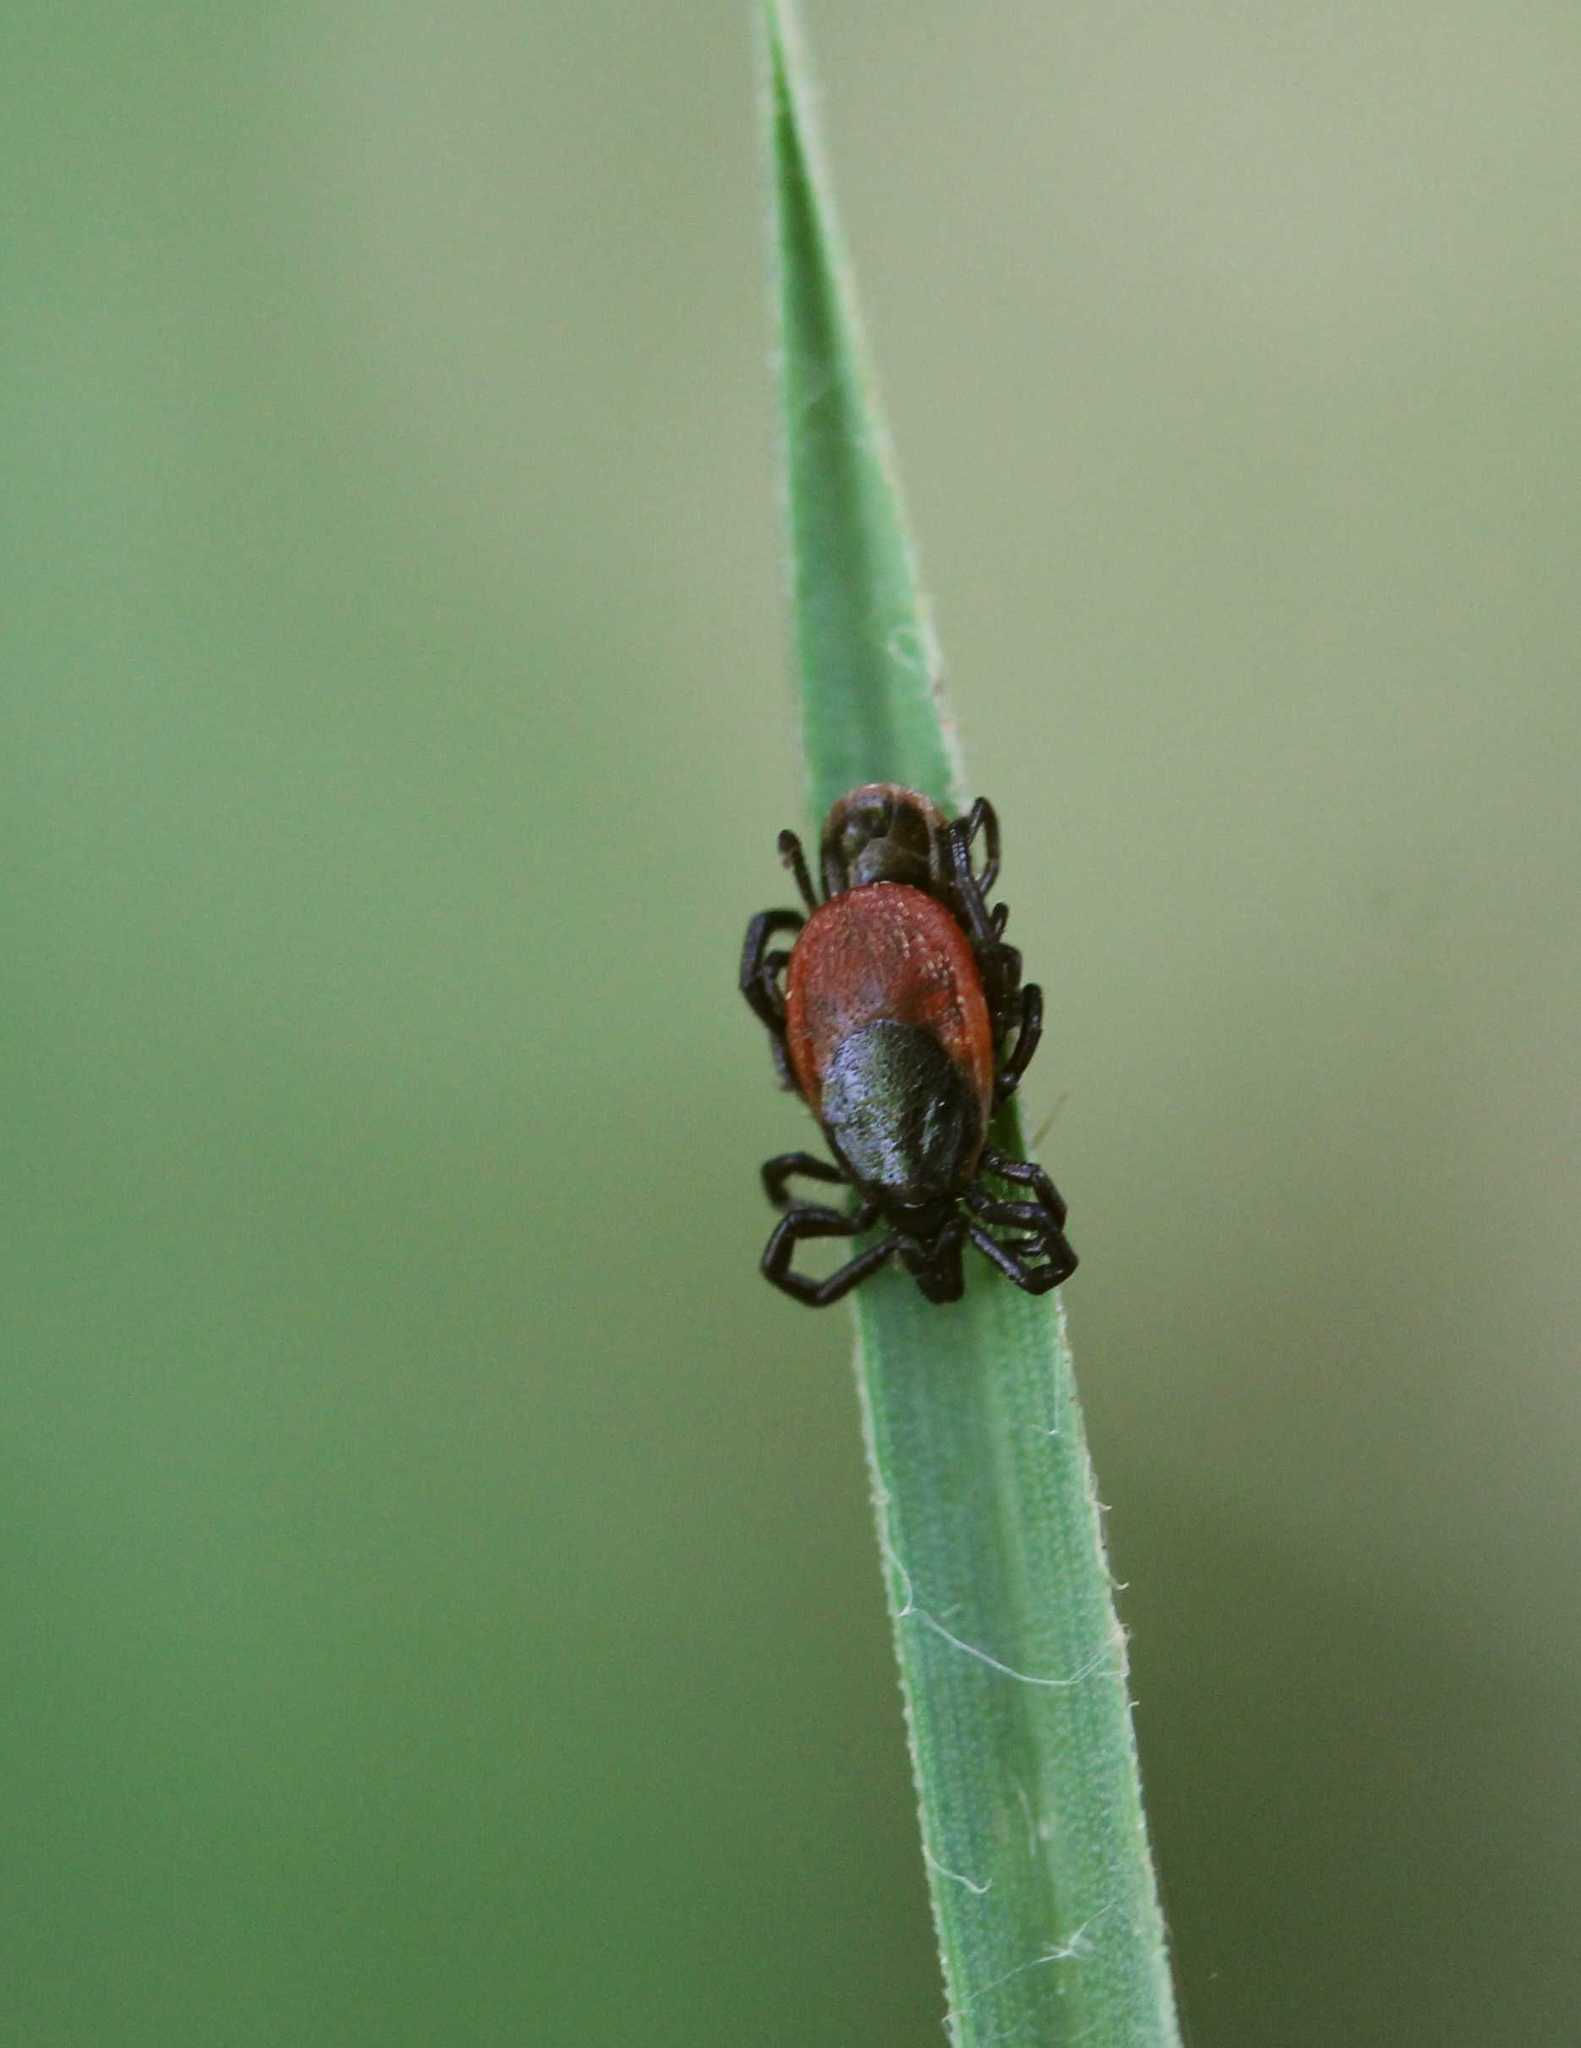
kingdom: Animalia
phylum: Arthropoda
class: Arachnida
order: Ixodida
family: Ixodidae
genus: Ixodes
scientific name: Ixodes ricinus
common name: Castor bean tick
